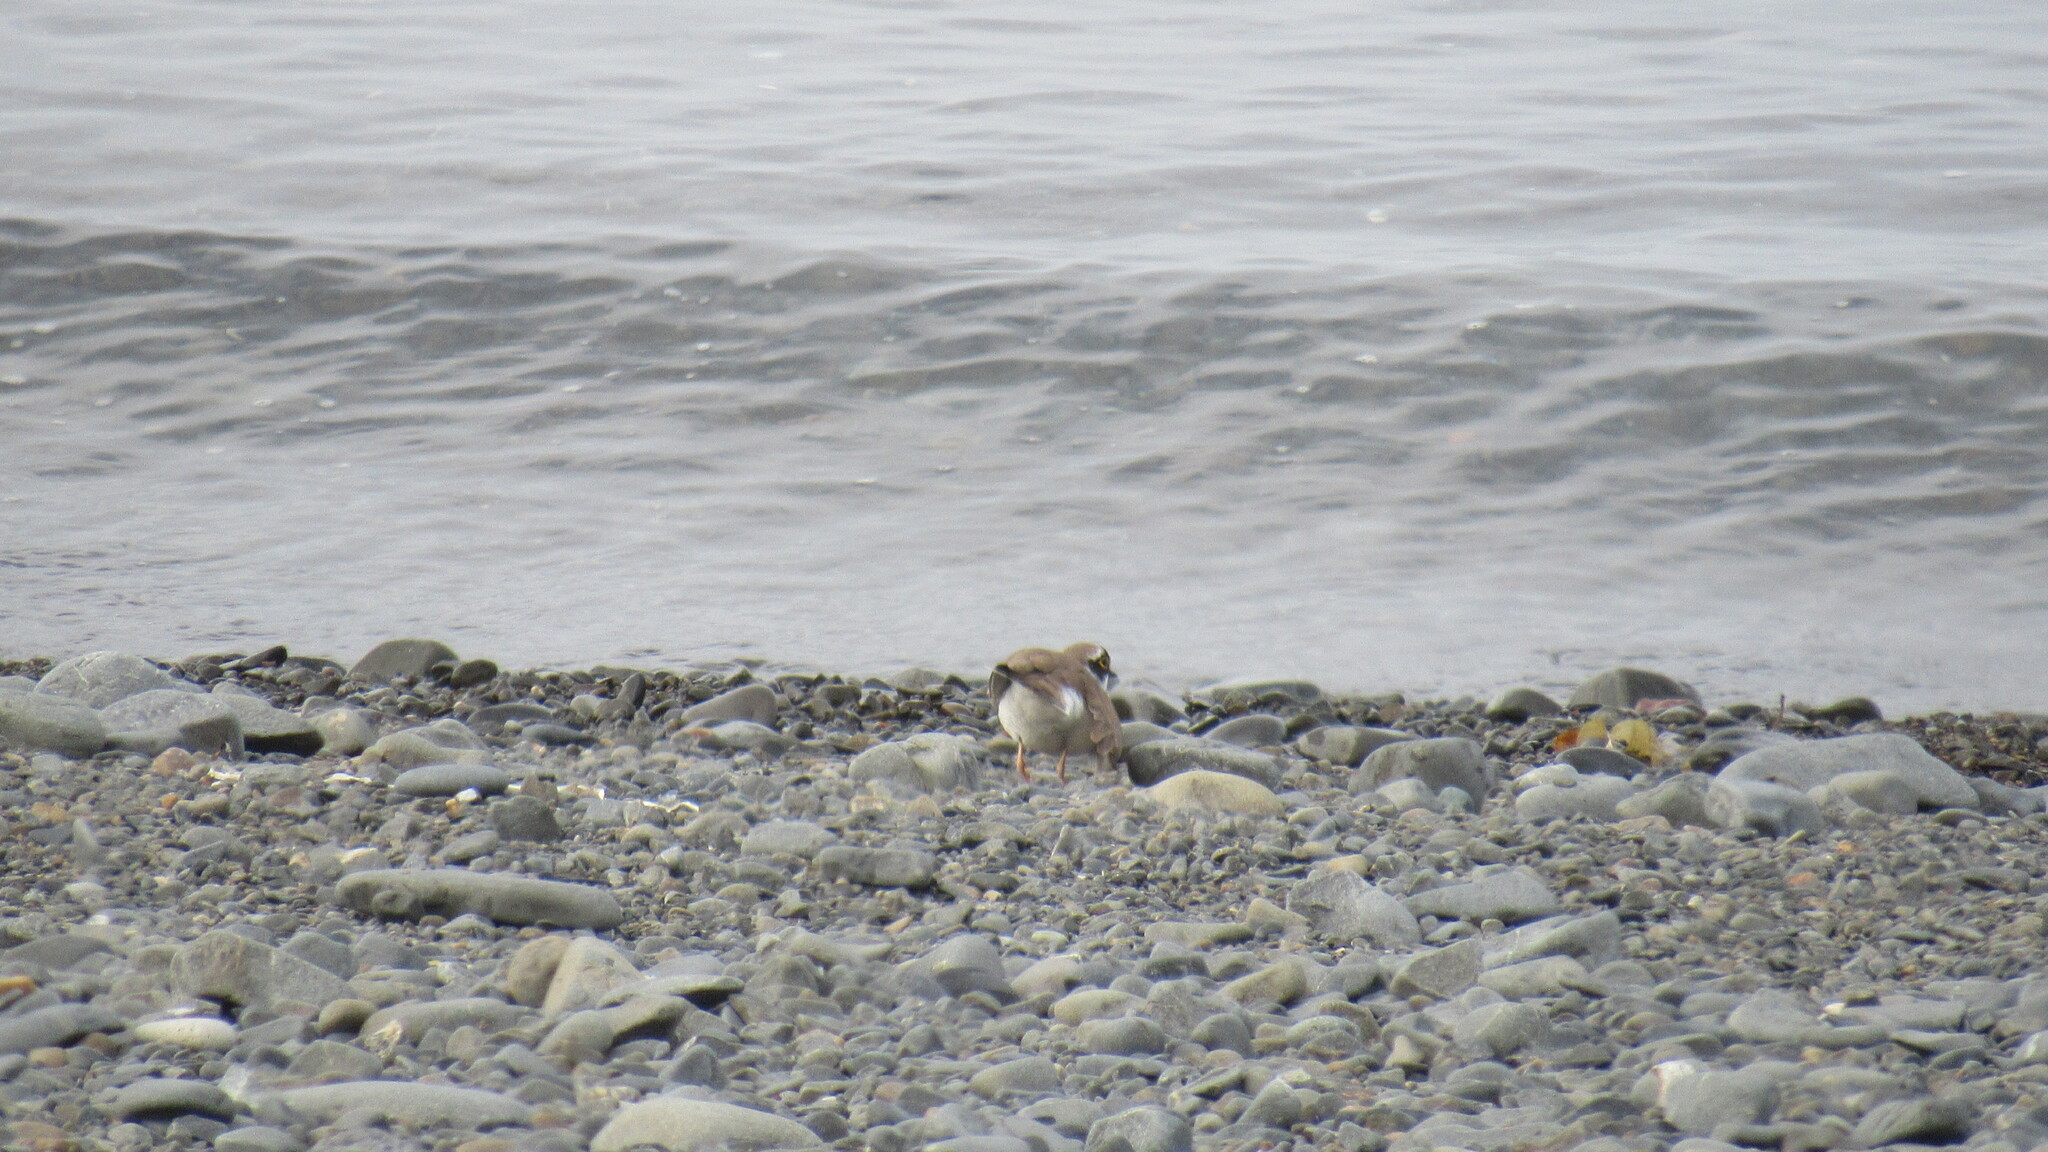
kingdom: Animalia
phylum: Chordata
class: Aves
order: Charadriiformes
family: Charadriidae
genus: Charadrius
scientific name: Charadrius dubius
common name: Little ringed plover
